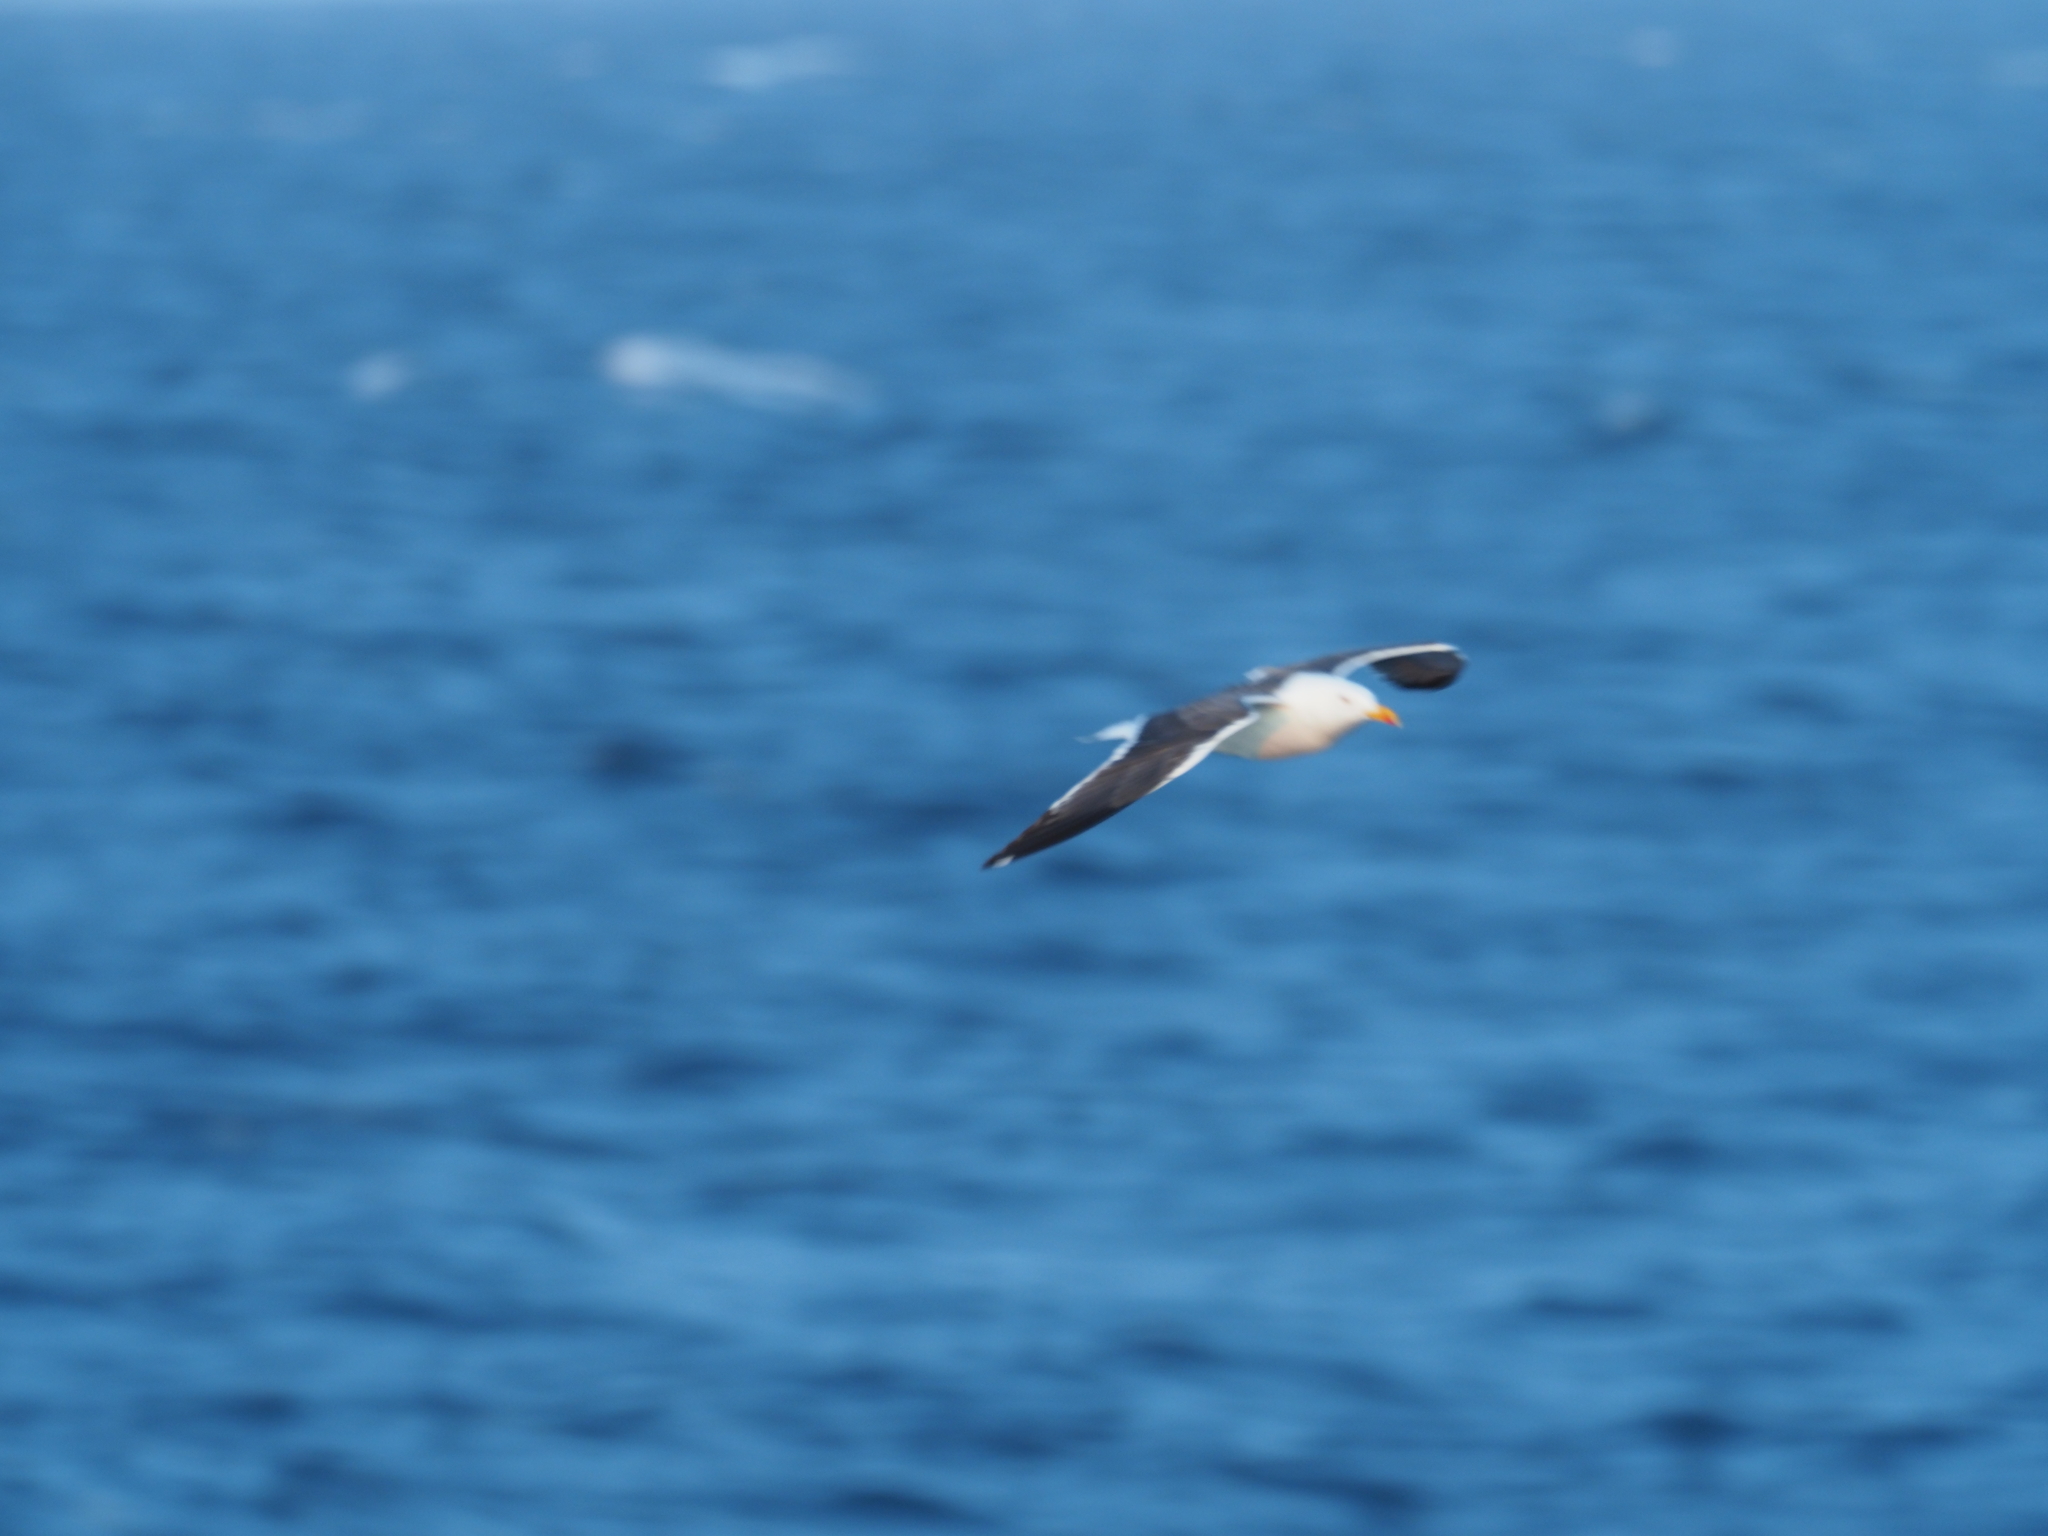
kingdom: Animalia
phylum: Chordata
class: Aves
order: Charadriiformes
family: Laridae
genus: Larus
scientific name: Larus fuscus
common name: Lesser black-backed gull
